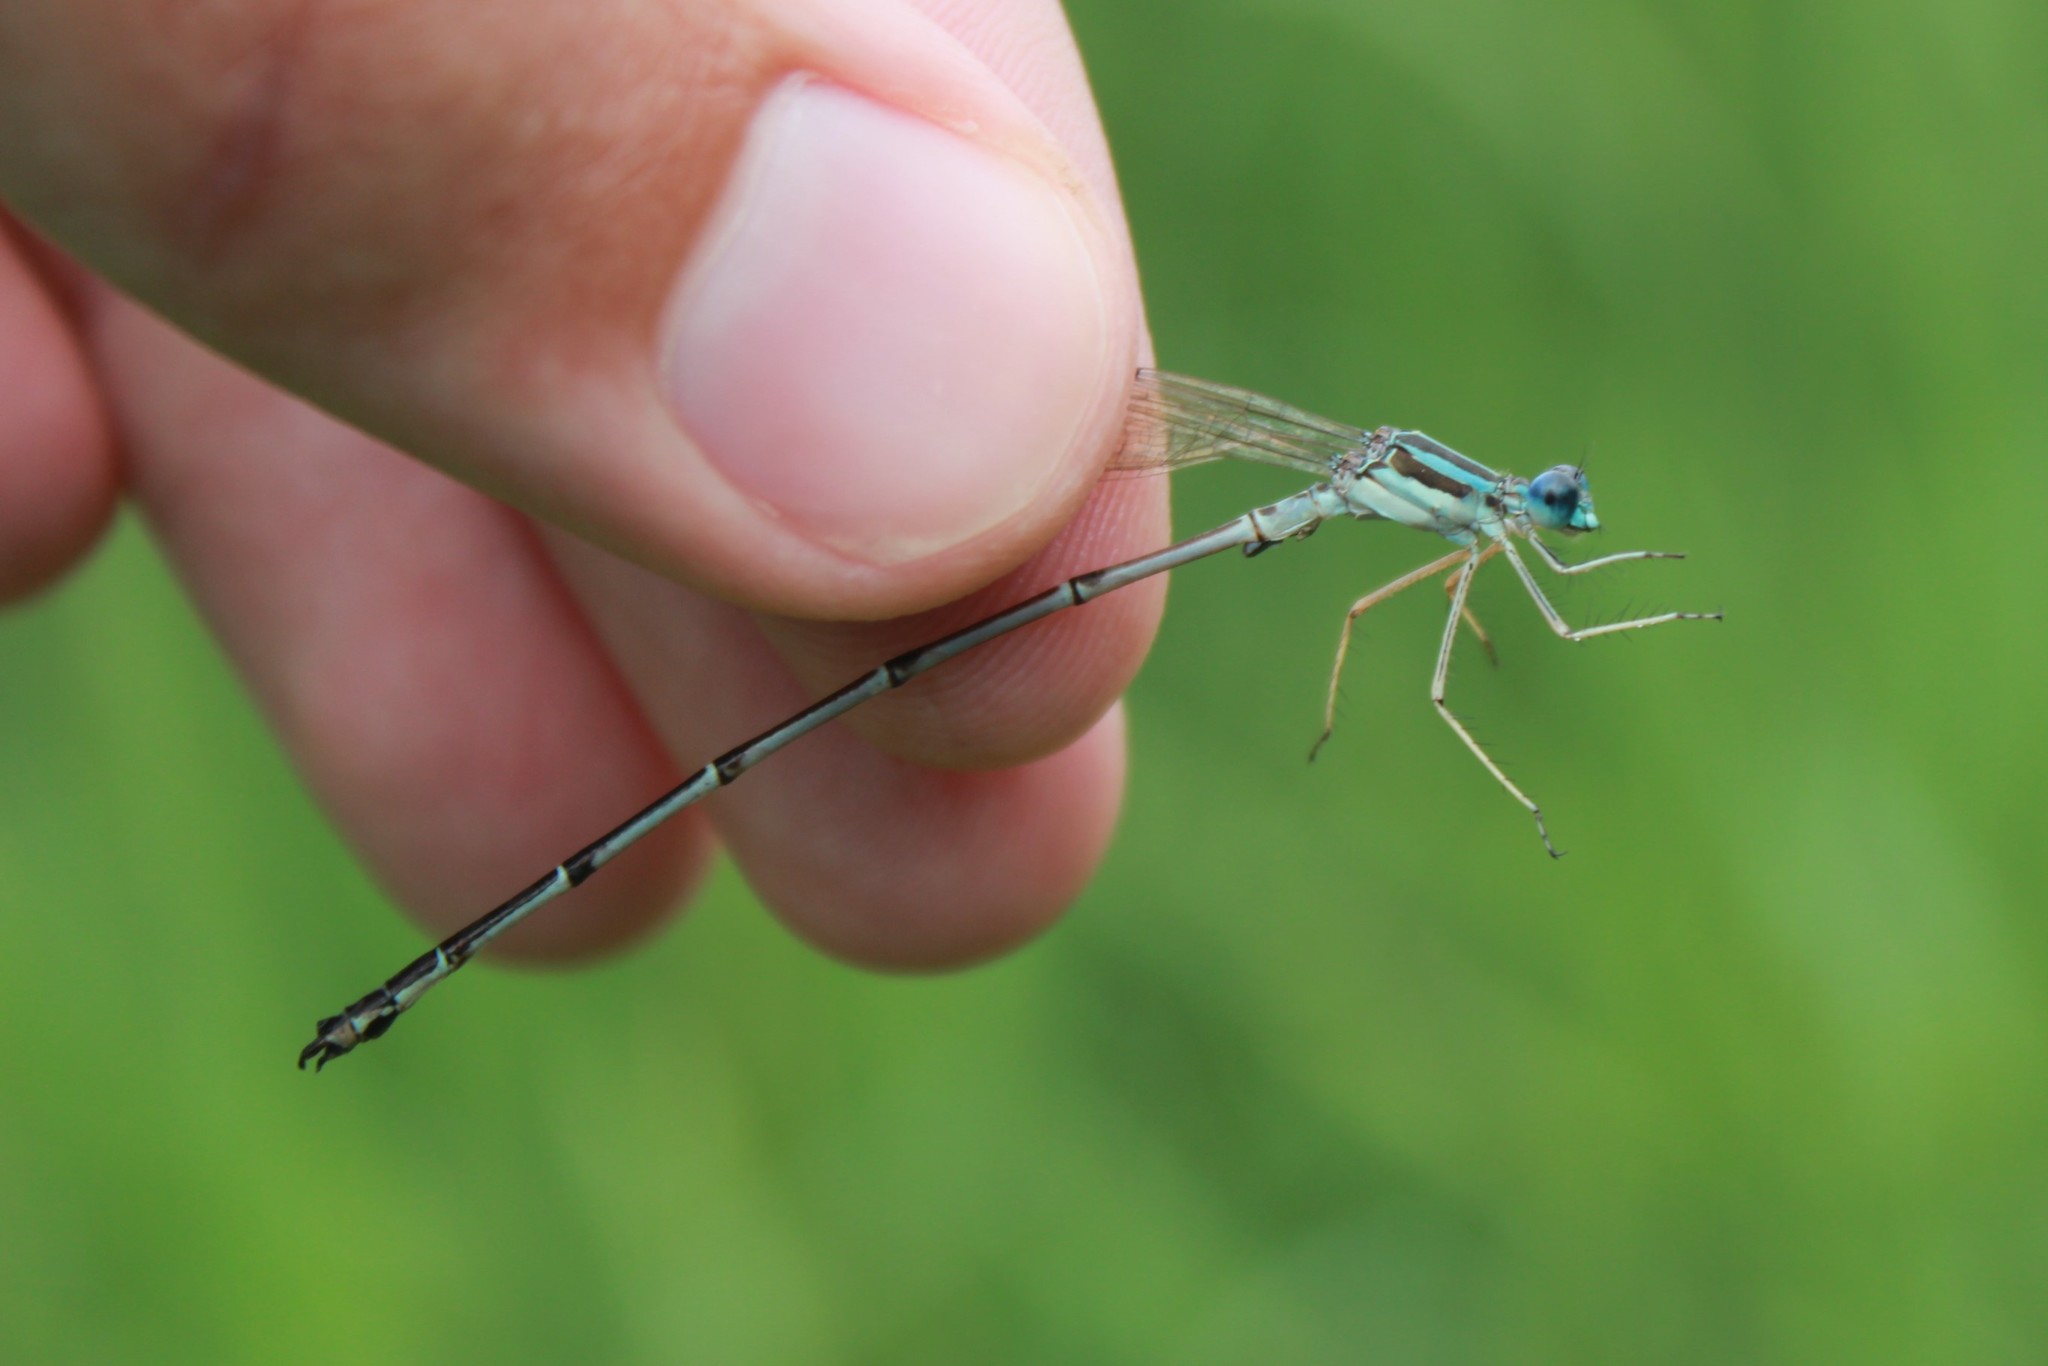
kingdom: Animalia
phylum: Arthropoda
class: Insecta
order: Odonata
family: Lestidae
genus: Lestes
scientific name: Lestes rectangularis
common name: Slender spreadwing
